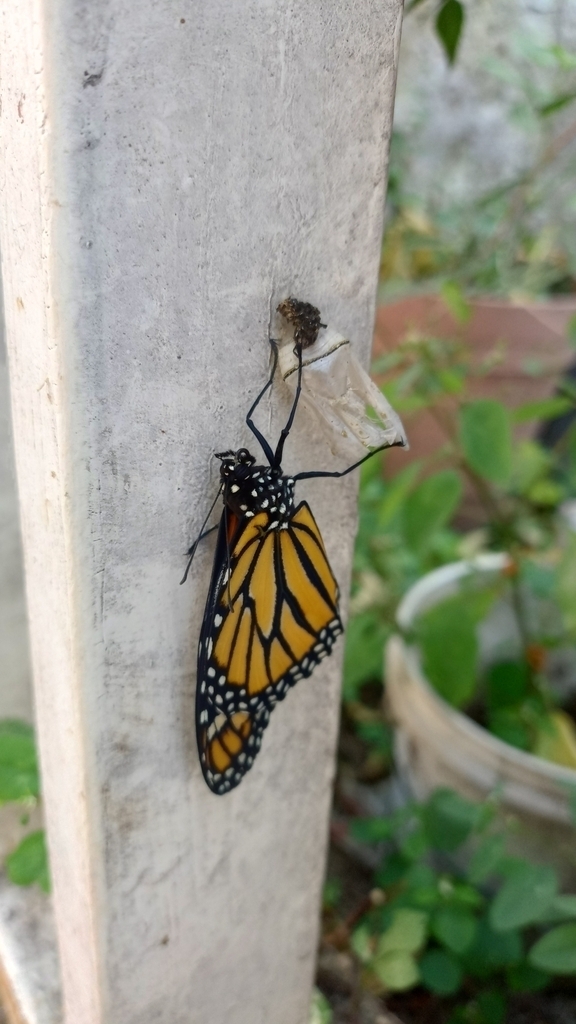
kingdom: Animalia
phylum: Arthropoda
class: Insecta
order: Lepidoptera
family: Nymphalidae
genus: Danaus
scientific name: Danaus plexippus
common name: Monarch
